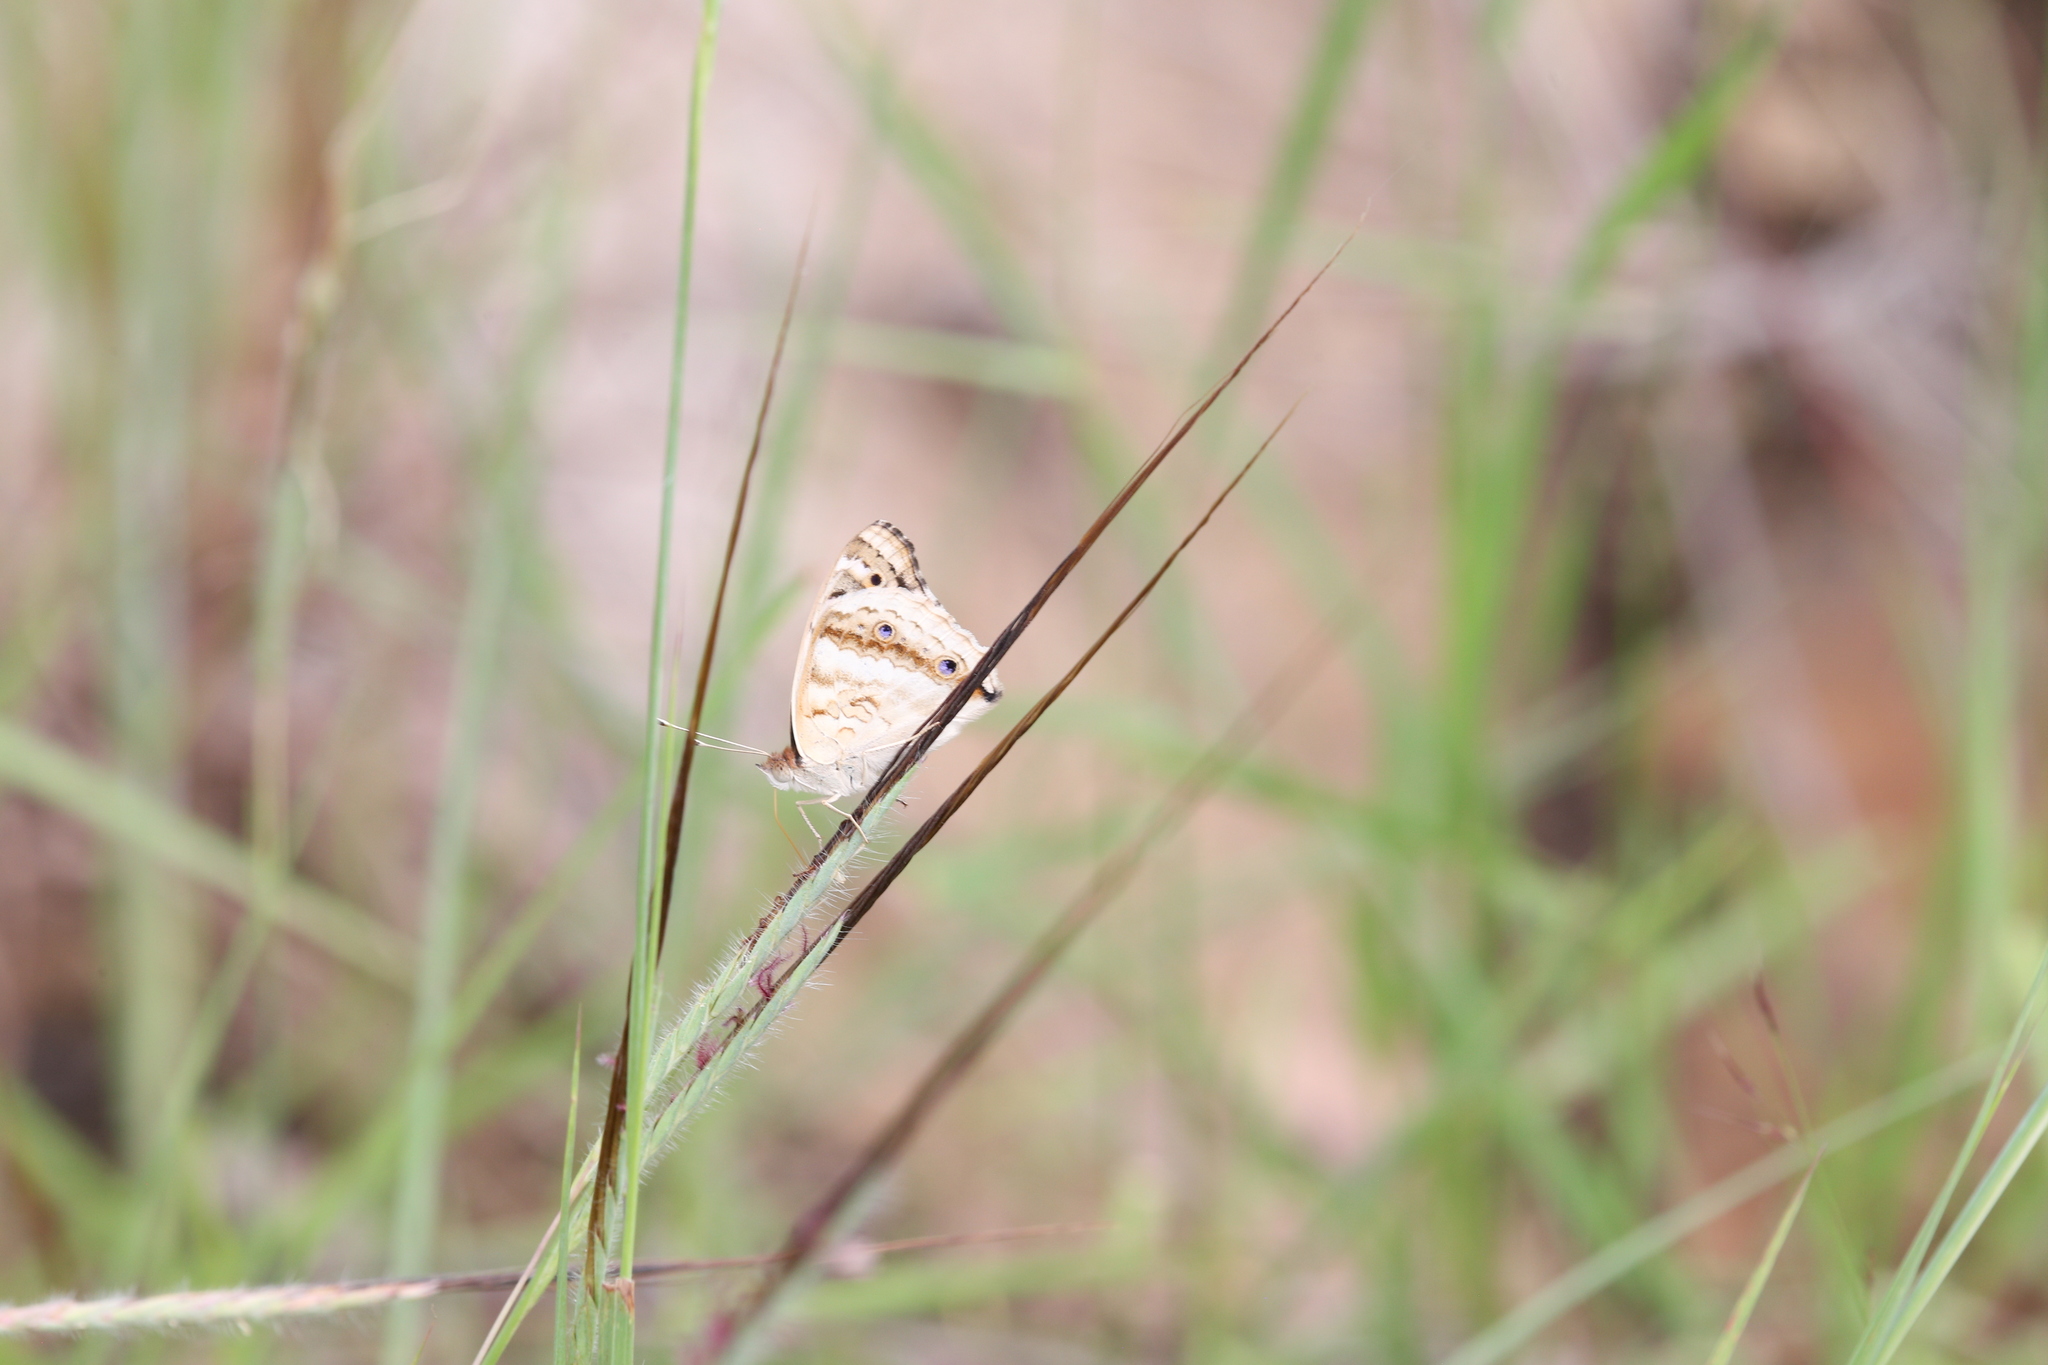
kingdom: Animalia
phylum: Arthropoda
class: Insecta
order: Lepidoptera
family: Nymphalidae
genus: Junonia
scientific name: Junonia orithya
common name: Blue pansy
